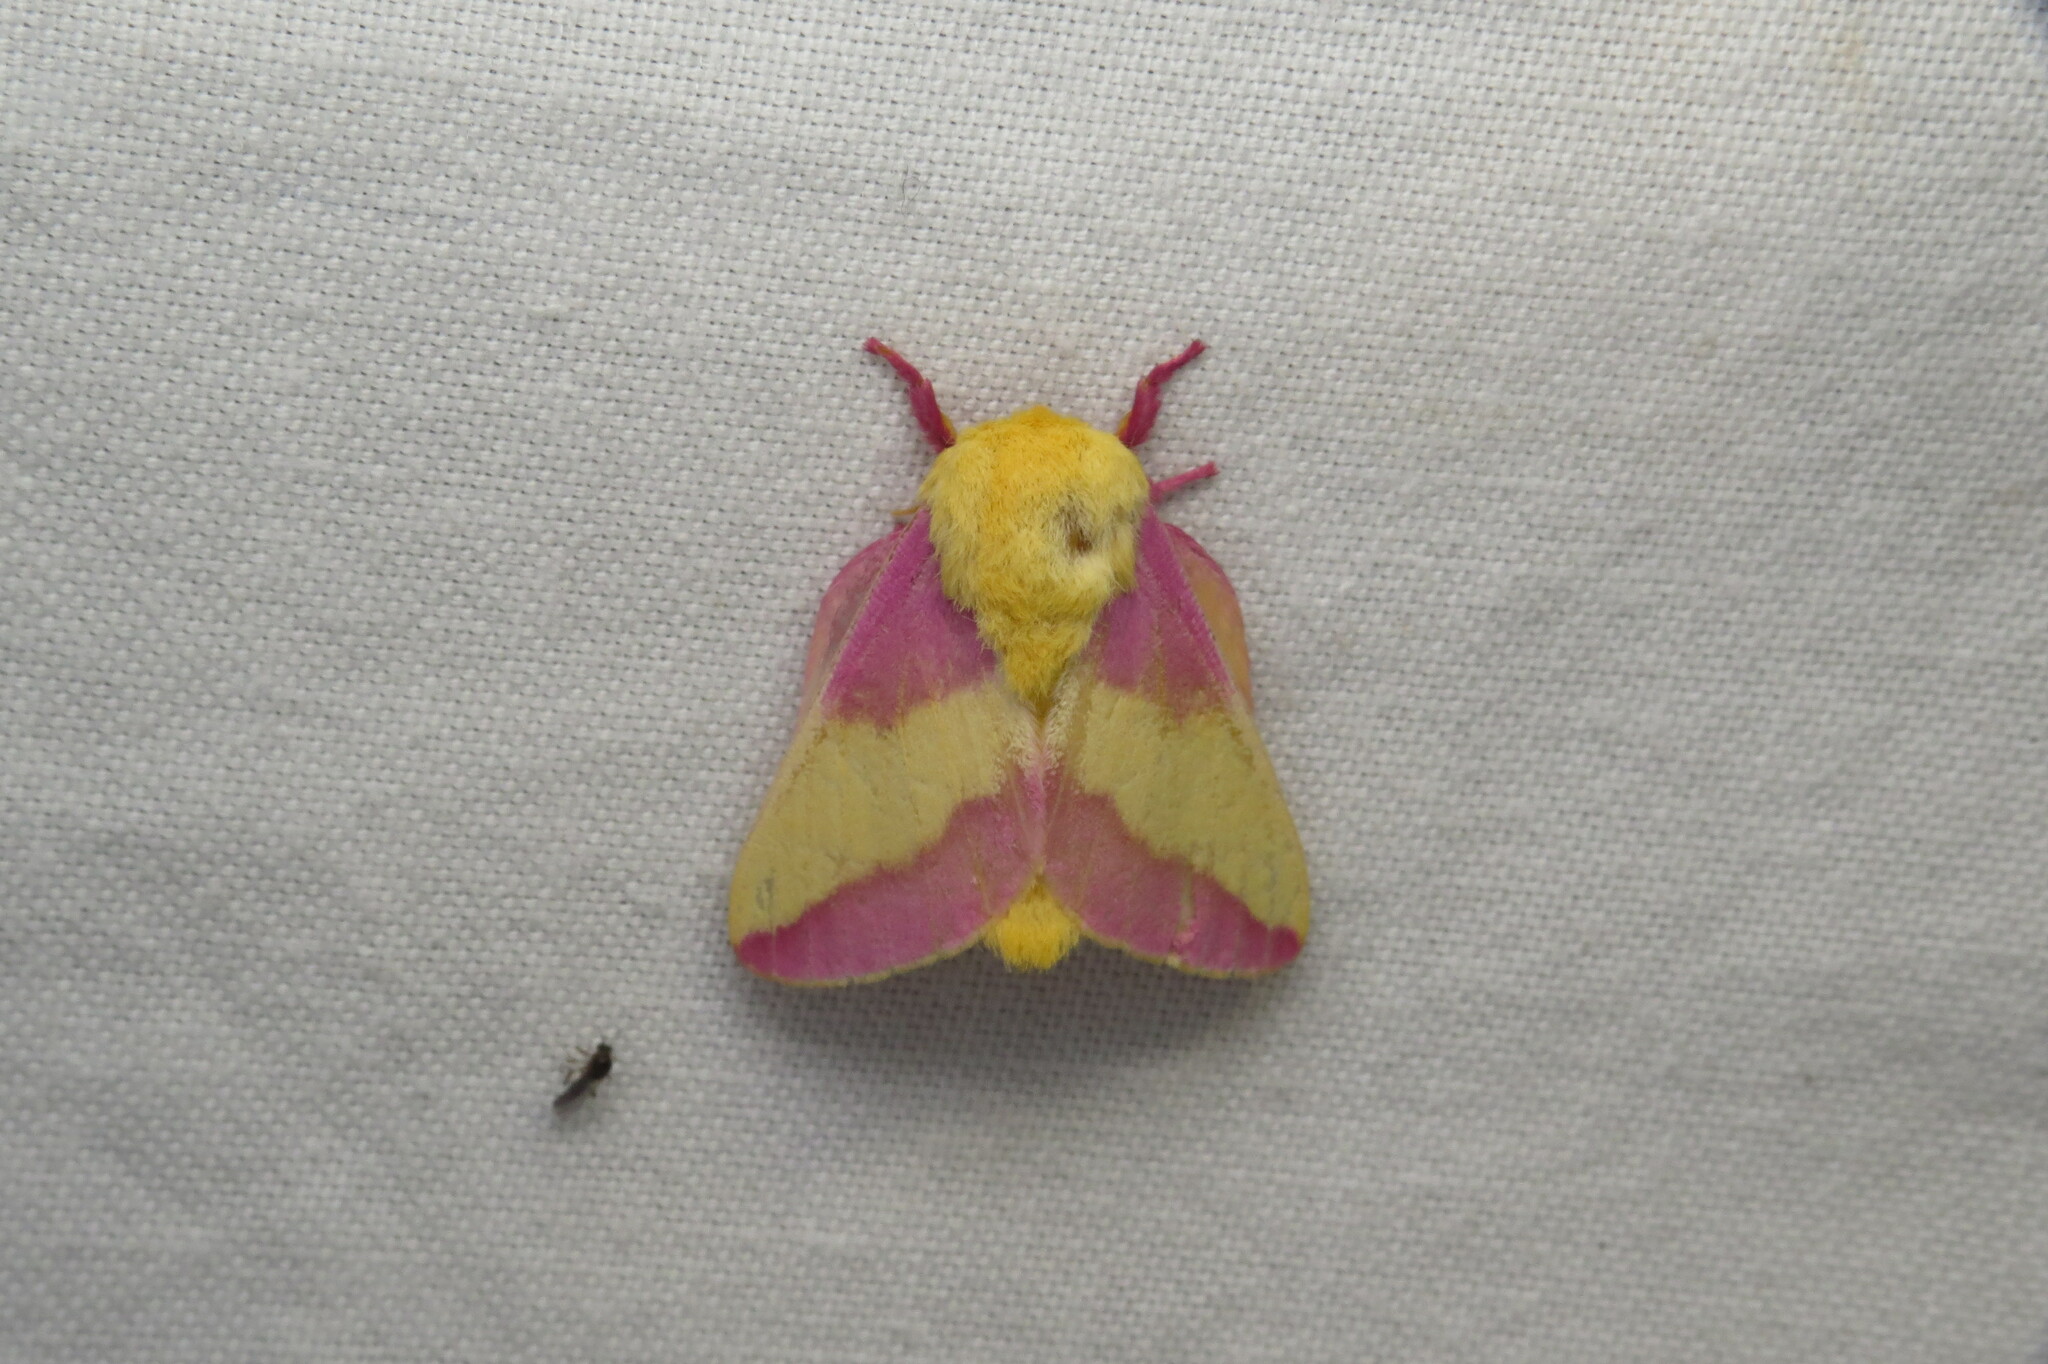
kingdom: Animalia
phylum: Arthropoda
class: Insecta
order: Lepidoptera
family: Saturniidae
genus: Dryocampa
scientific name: Dryocampa rubicunda
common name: Rosy maple moth
